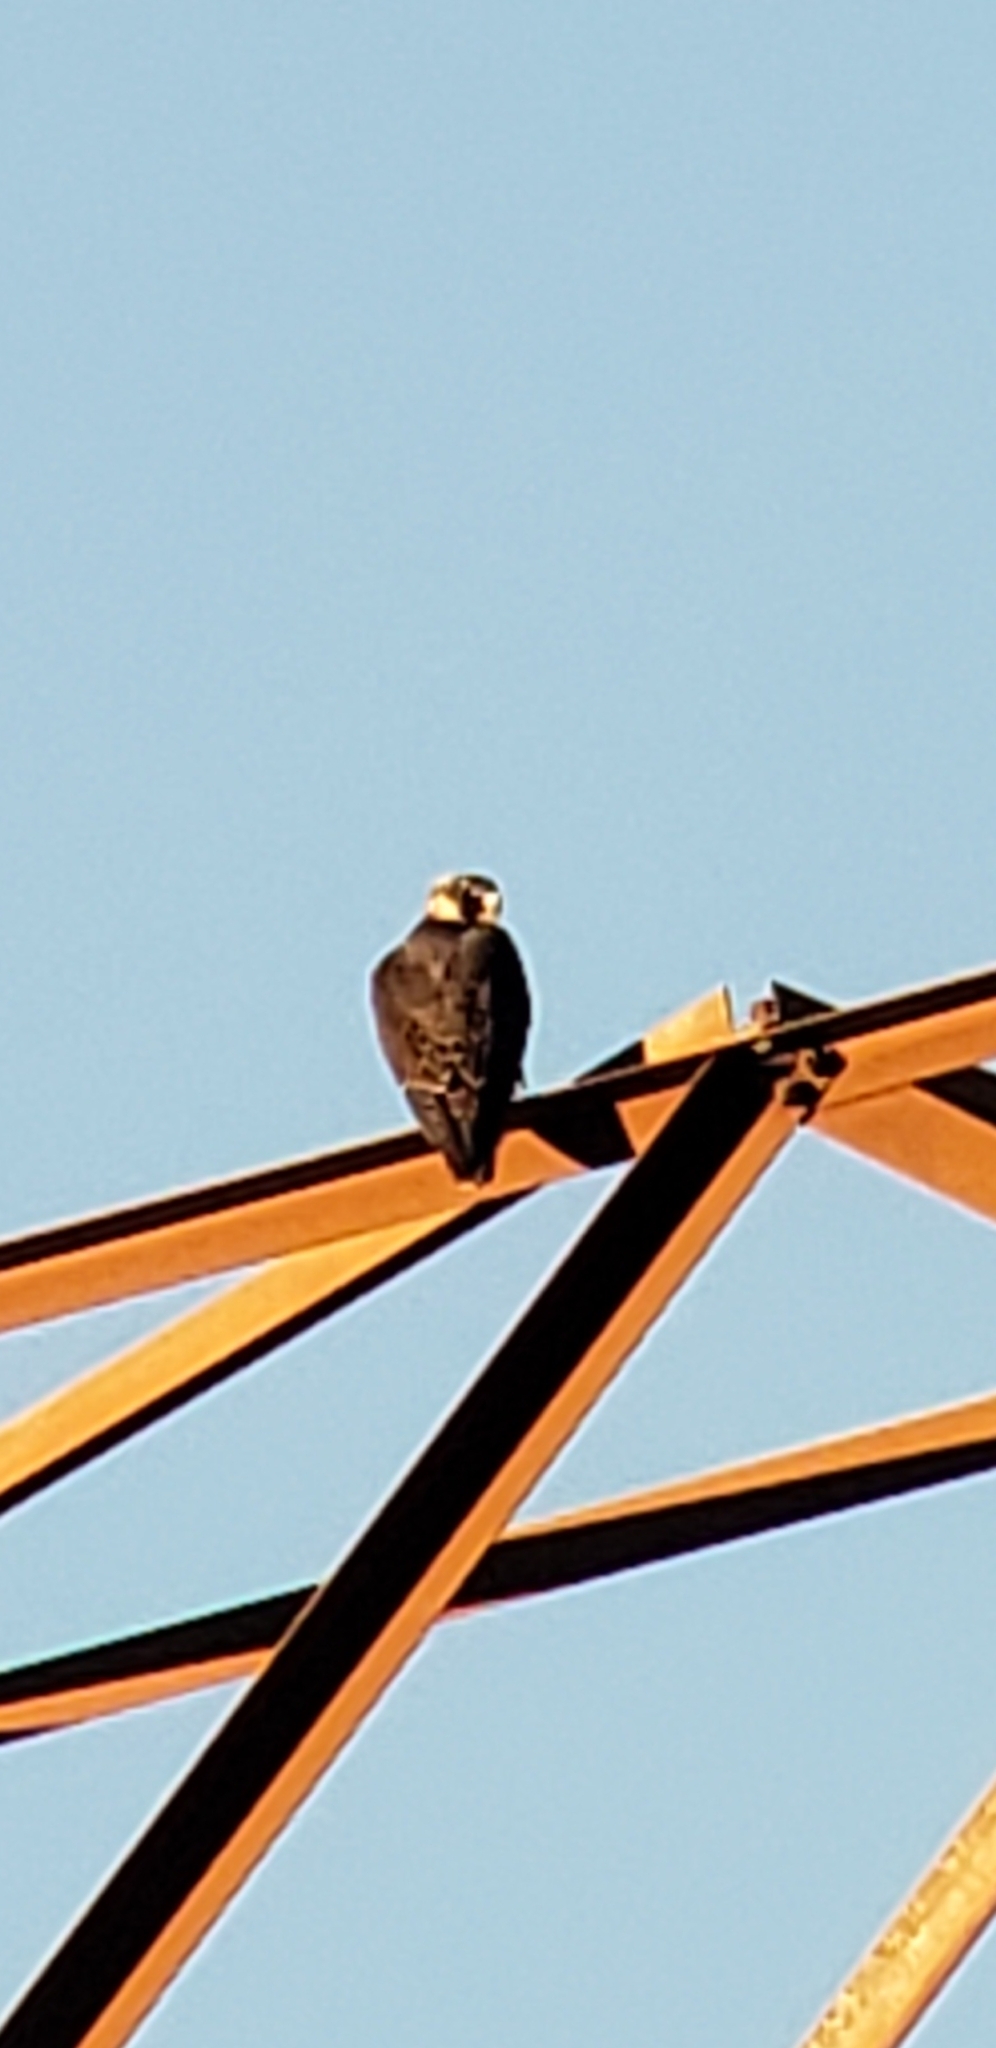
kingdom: Animalia
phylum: Chordata
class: Aves
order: Falconiformes
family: Falconidae
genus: Falco
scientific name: Falco peregrinus
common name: Peregrine falcon
